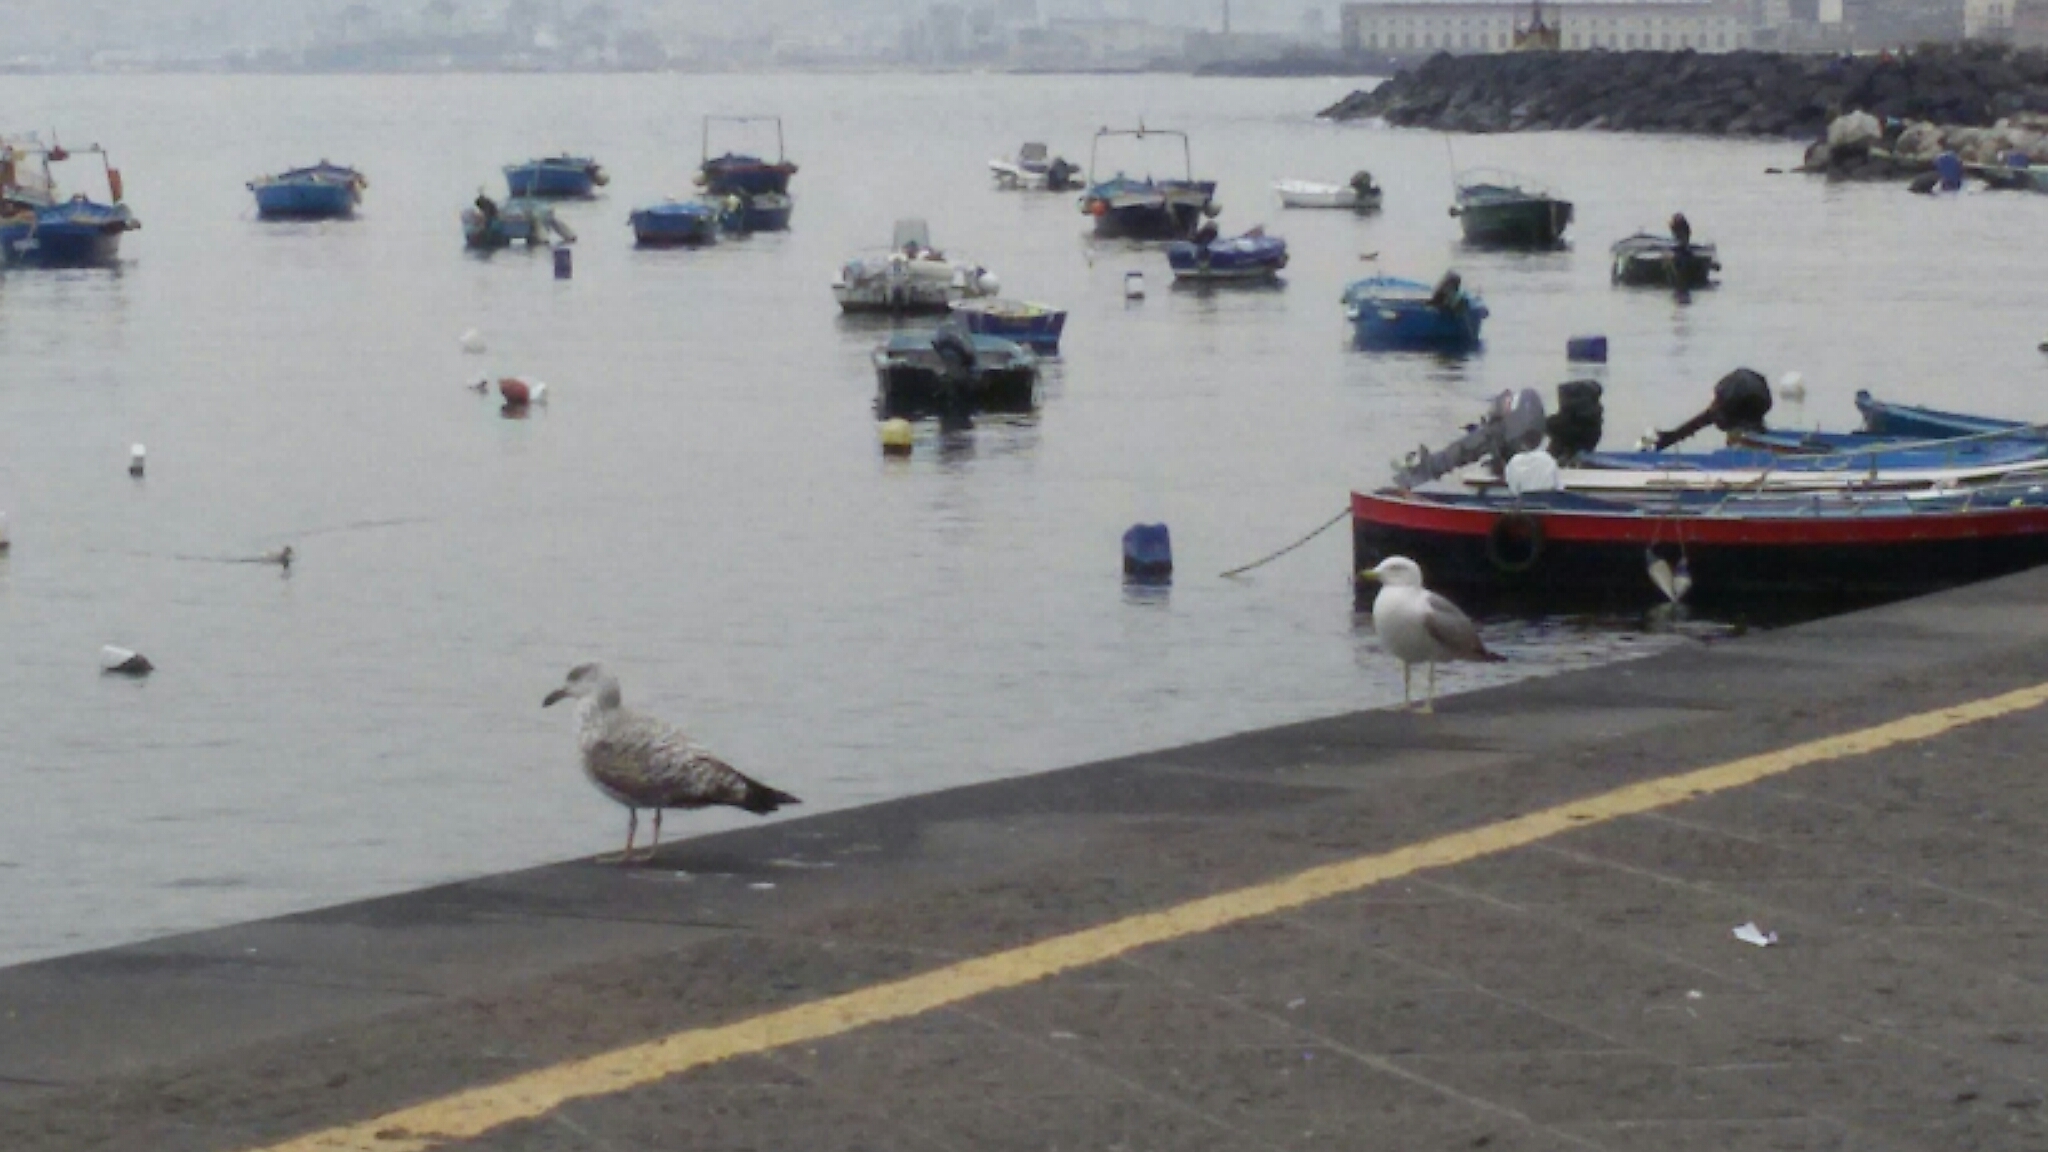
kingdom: Animalia
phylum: Chordata
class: Aves
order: Charadriiformes
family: Laridae
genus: Larus
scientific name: Larus michahellis
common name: Yellow-legged gull
